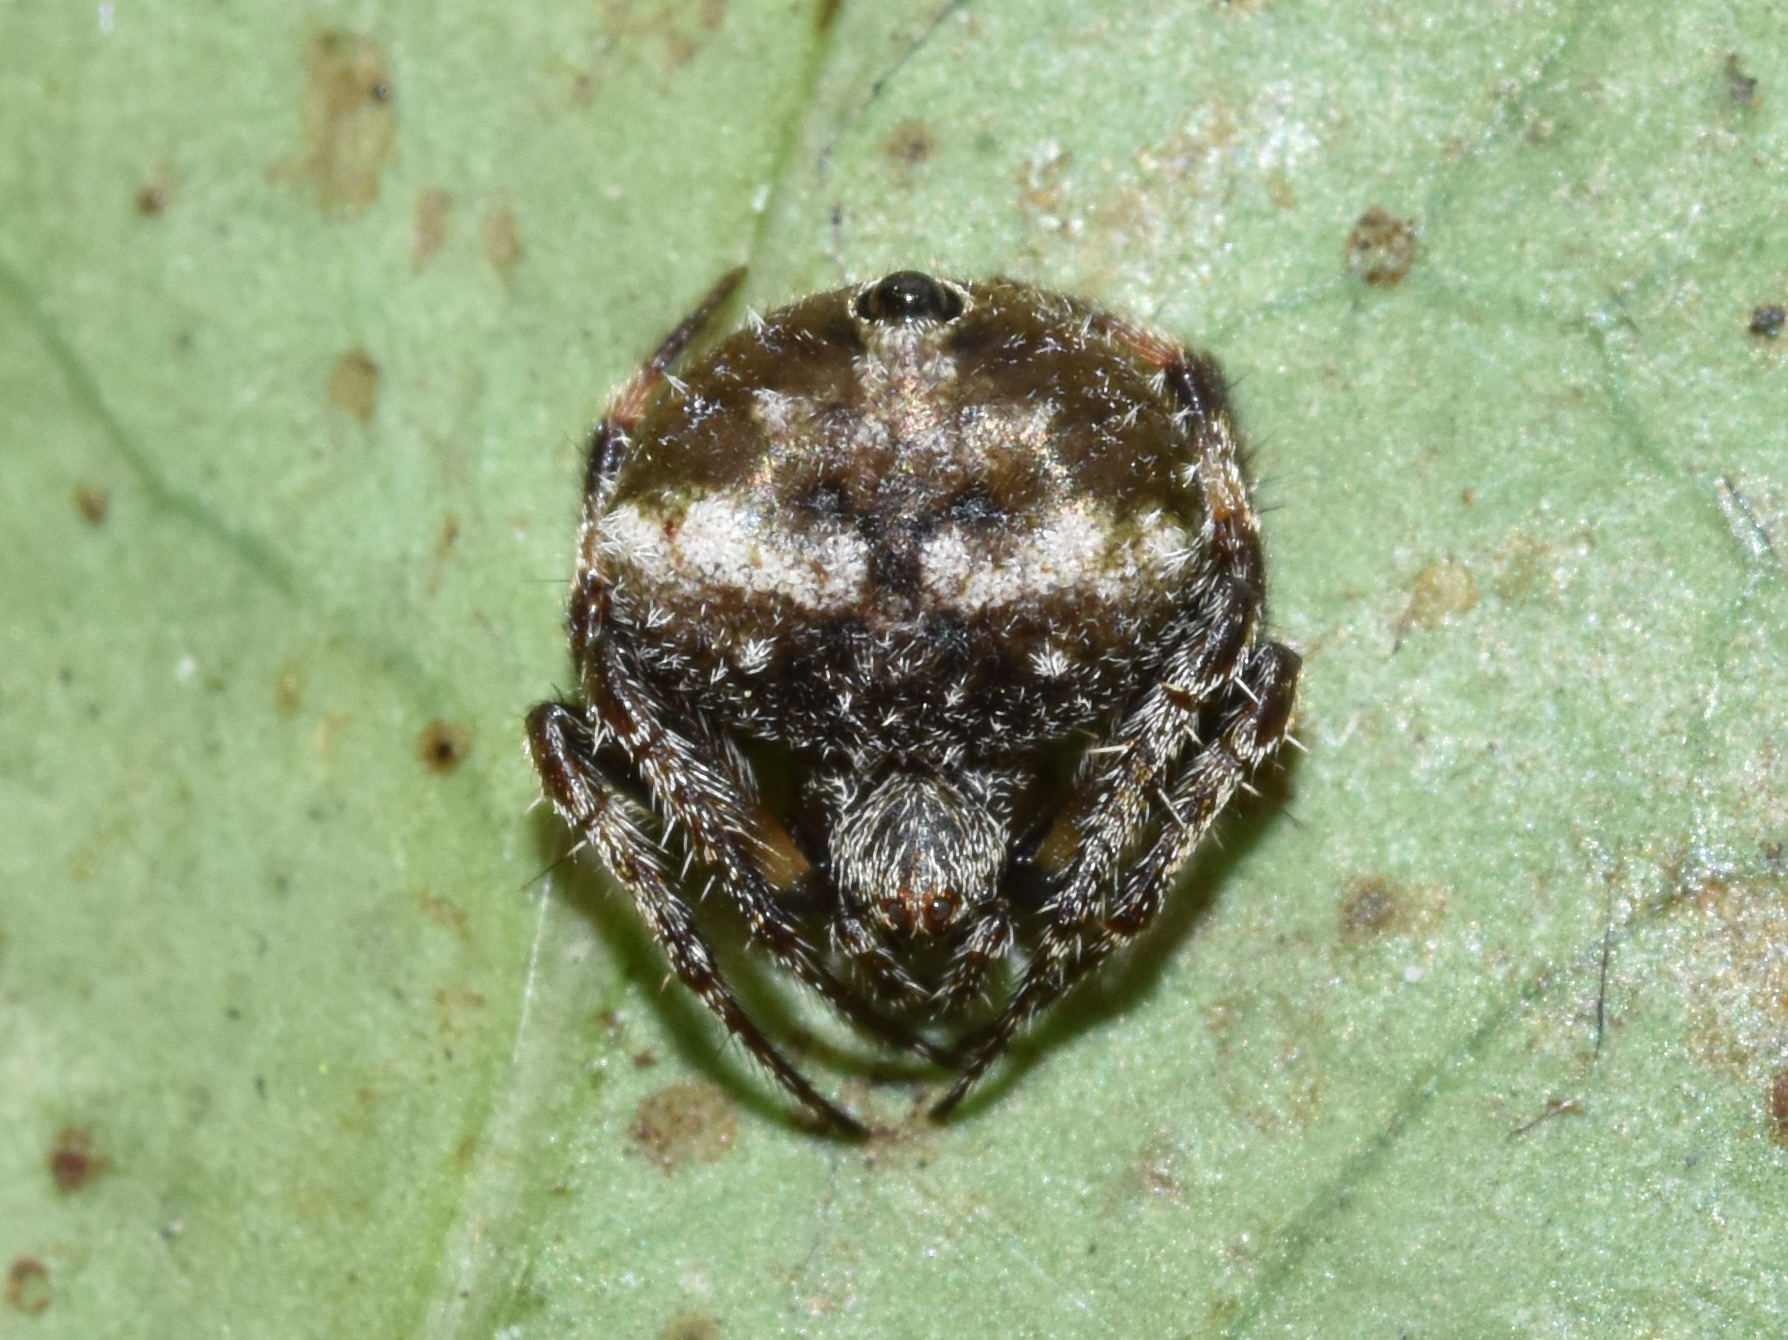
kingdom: Animalia
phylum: Arthropoda
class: Arachnida
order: Araneae
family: Araneidae
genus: Eriovixia
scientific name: Eriovixia excelsa
